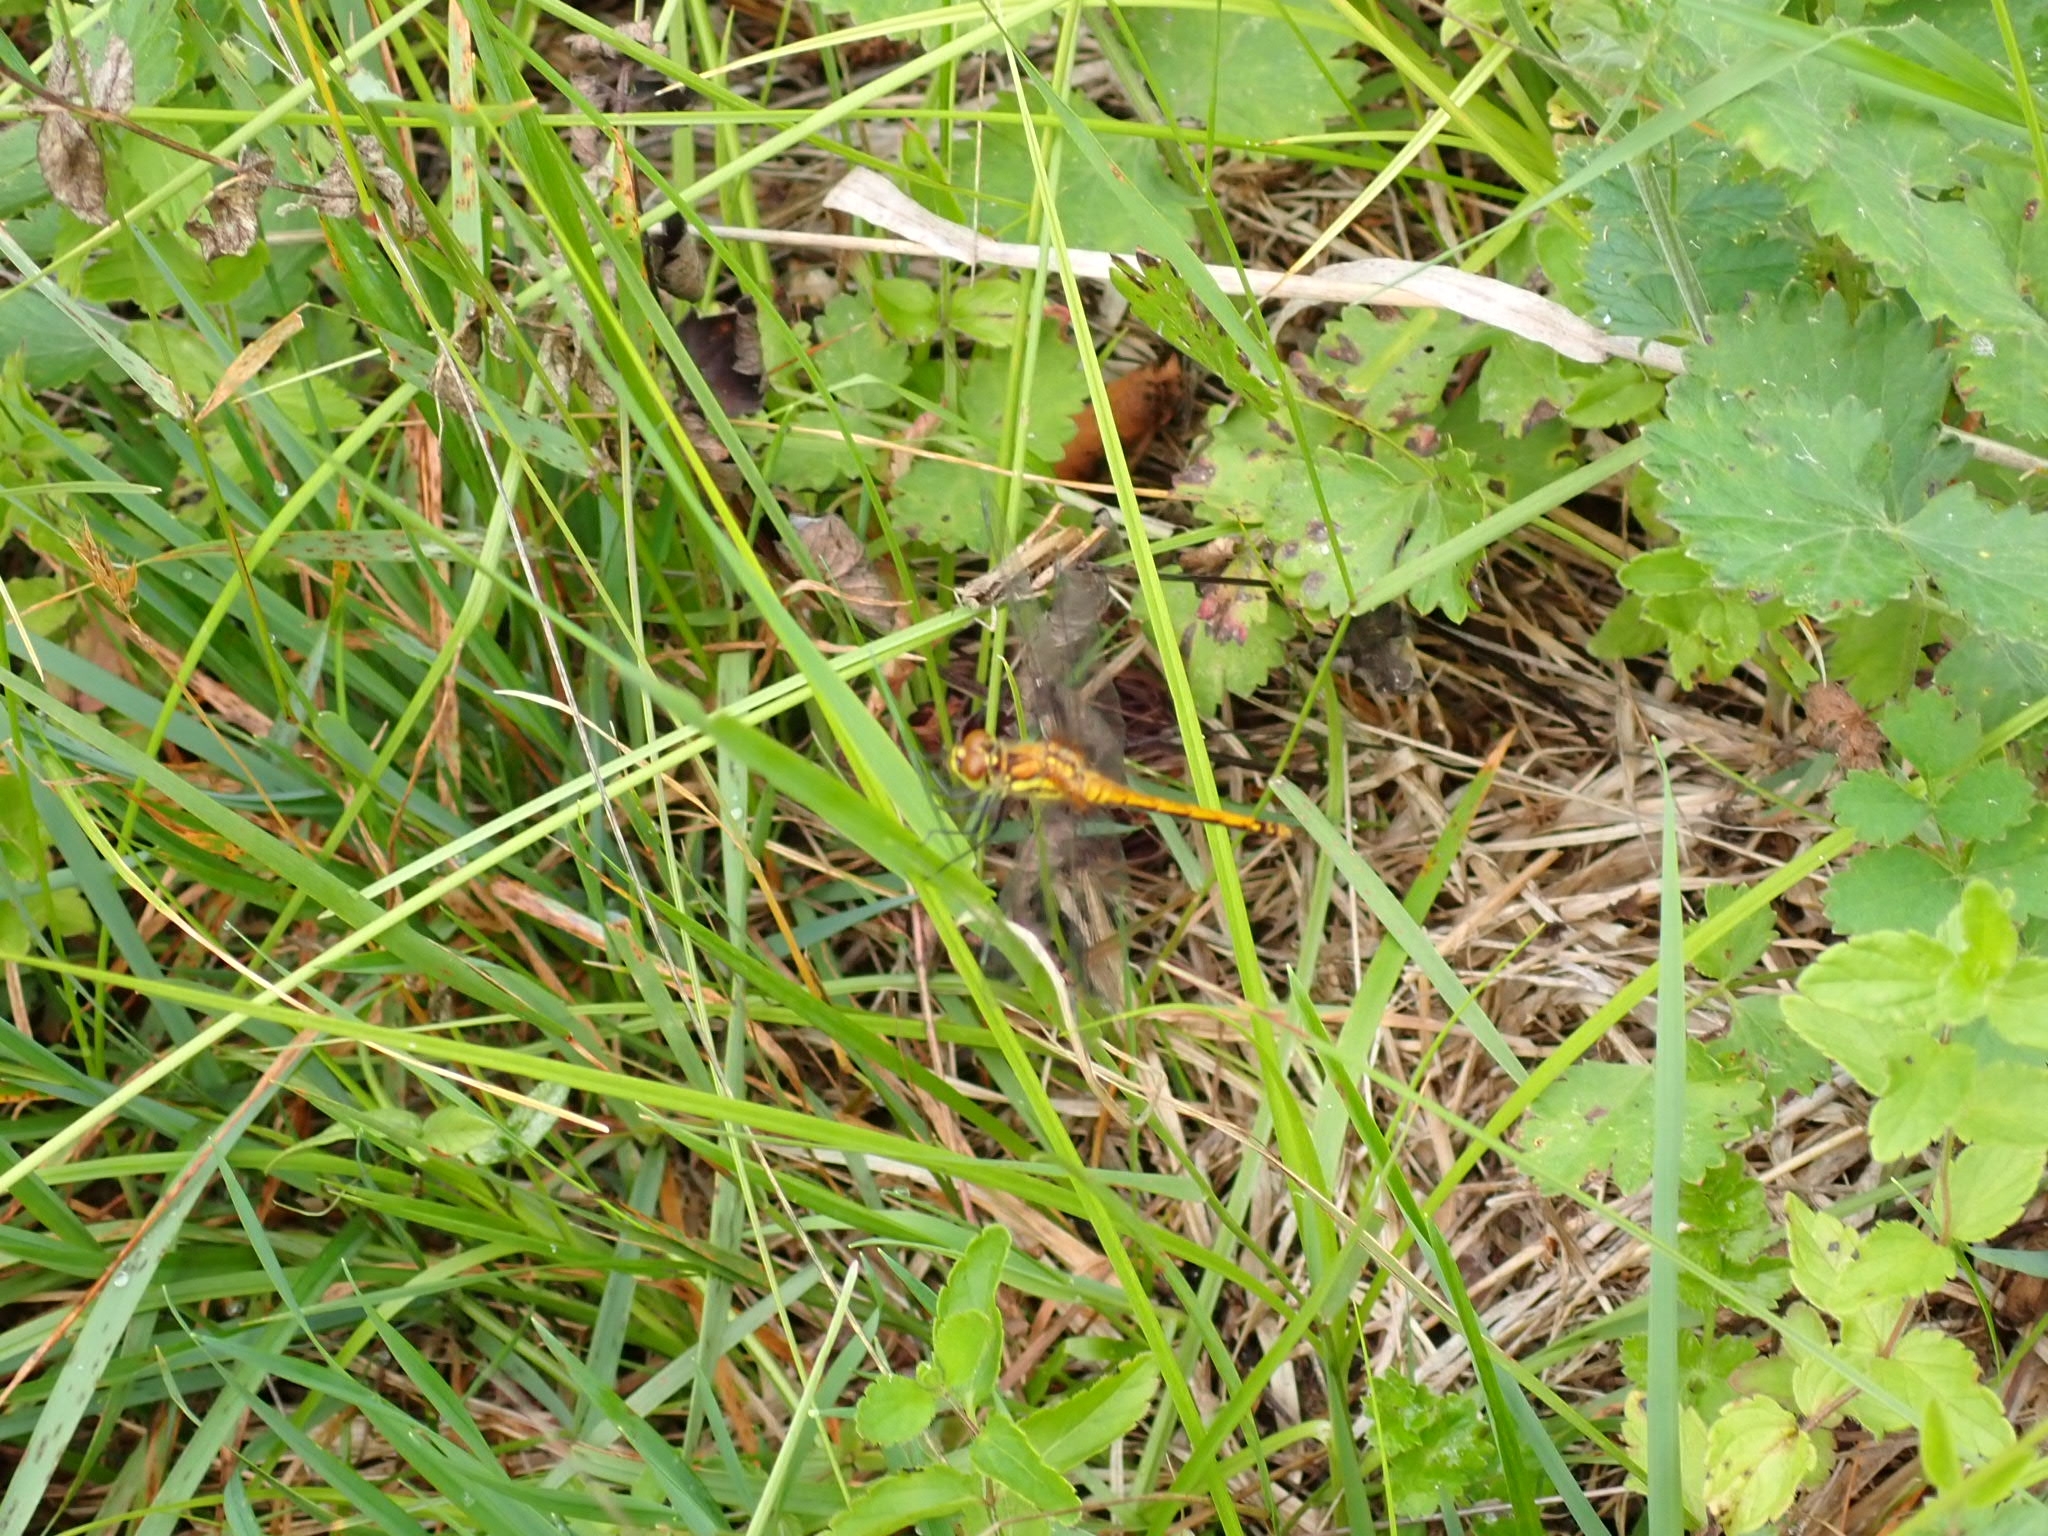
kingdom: Animalia
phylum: Arthropoda
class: Insecta
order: Odonata
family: Libellulidae
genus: Sympetrum
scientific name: Sympetrum danae
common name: Black darter
